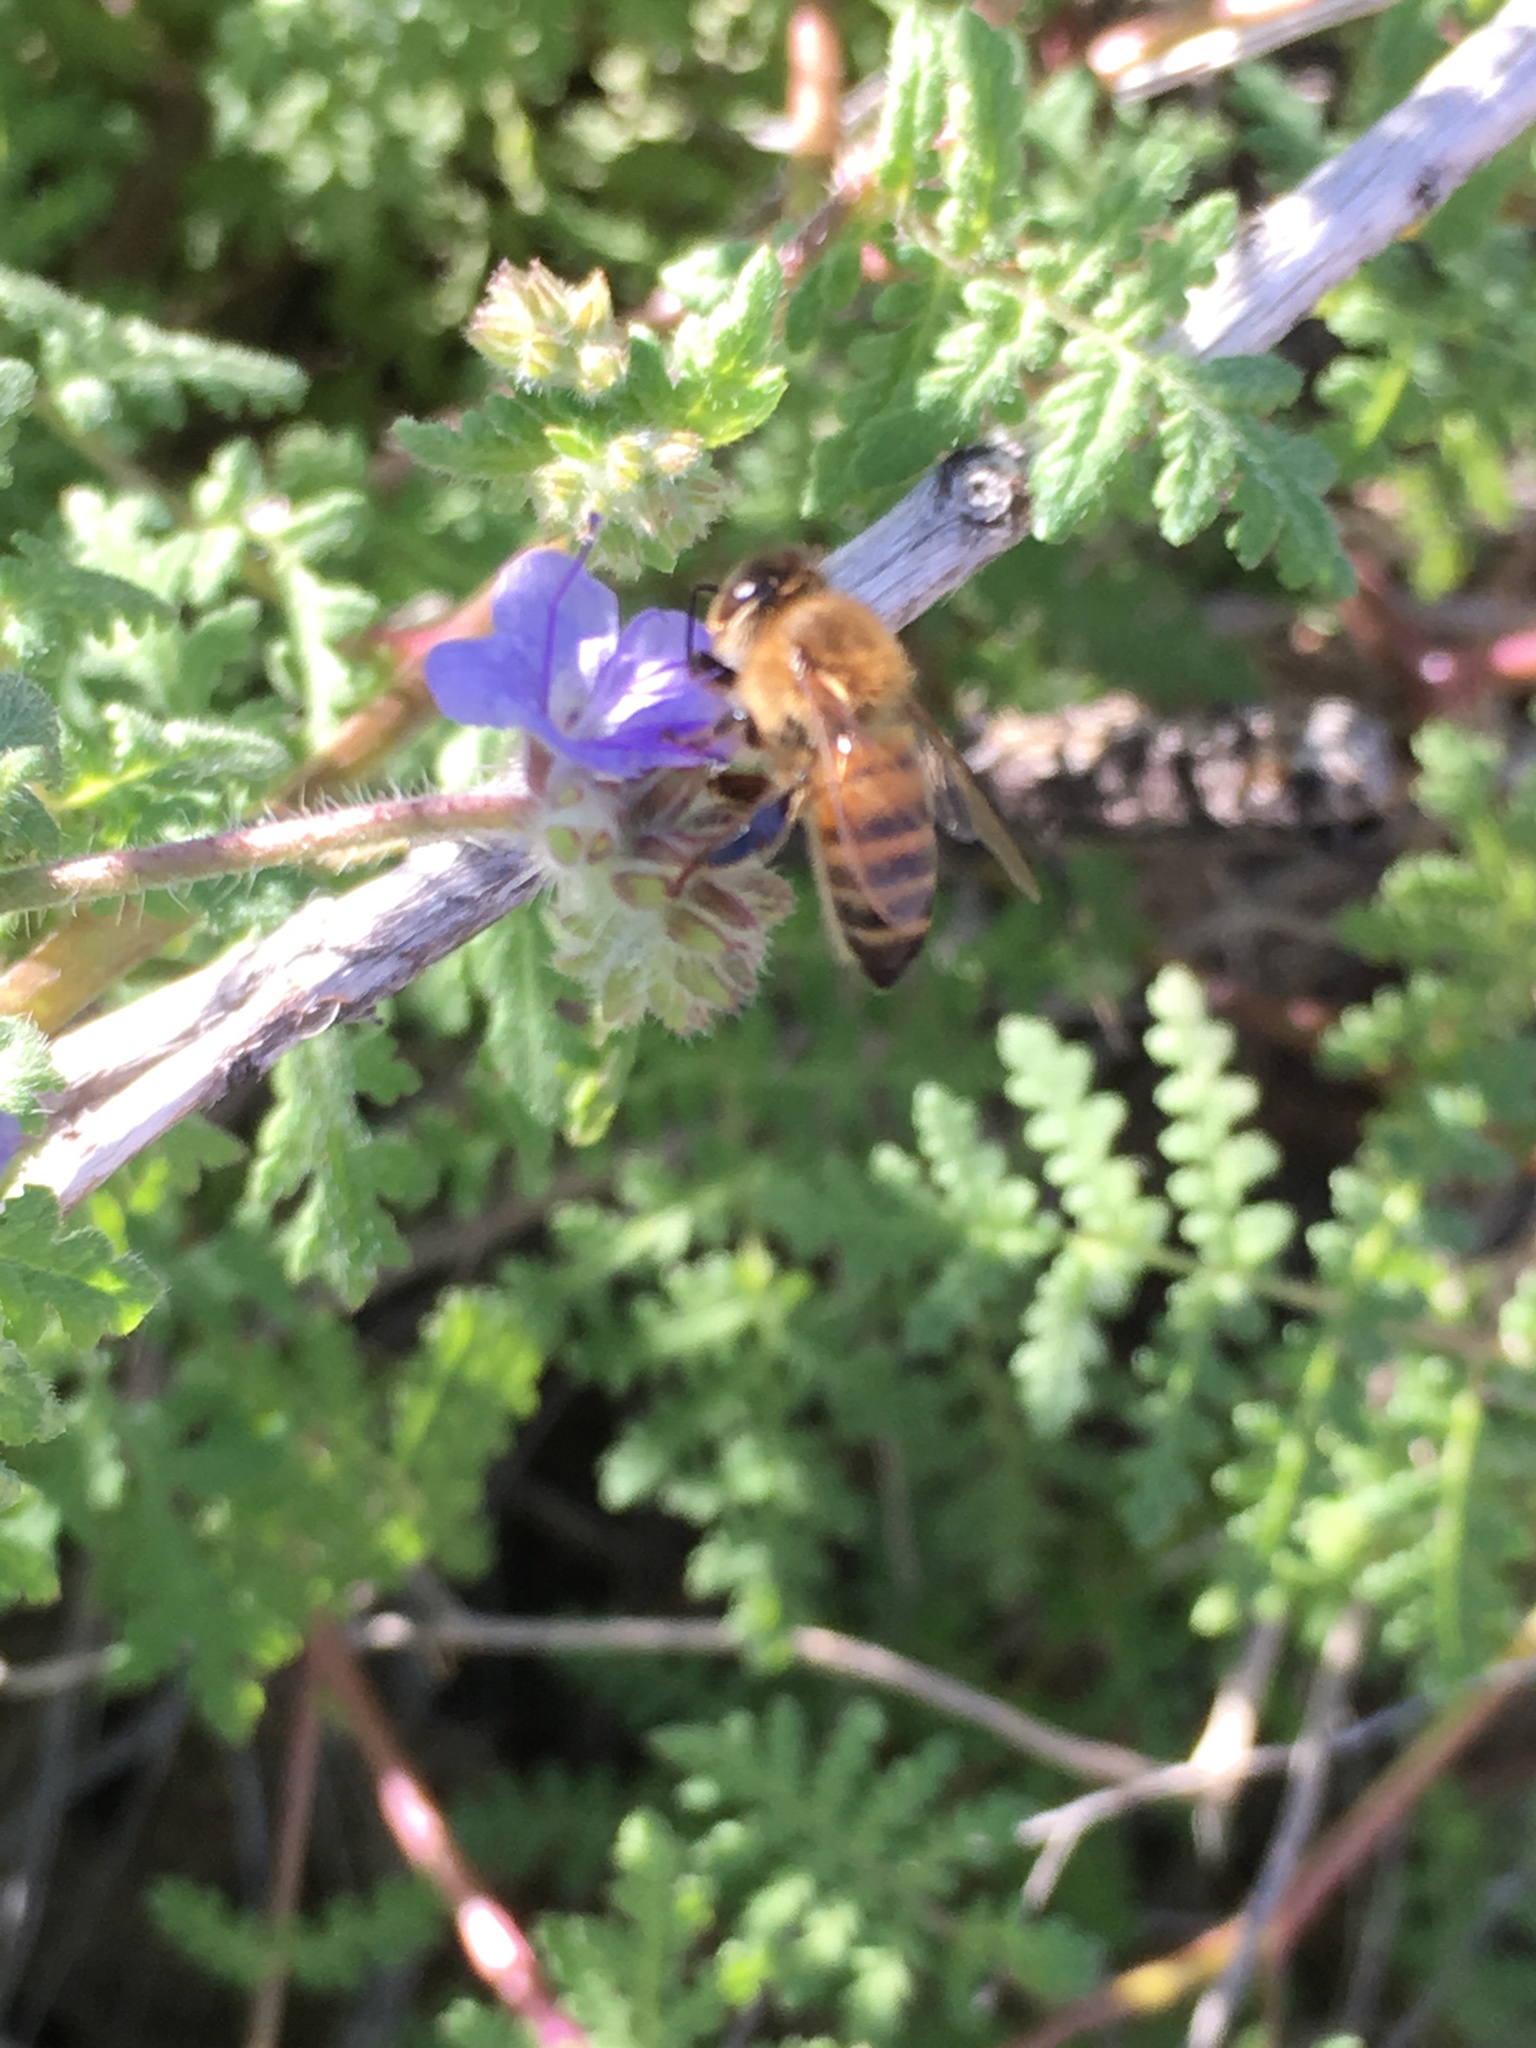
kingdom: Animalia
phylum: Arthropoda
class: Insecta
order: Hymenoptera
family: Apidae
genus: Apis
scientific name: Apis mellifera
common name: Honey bee
